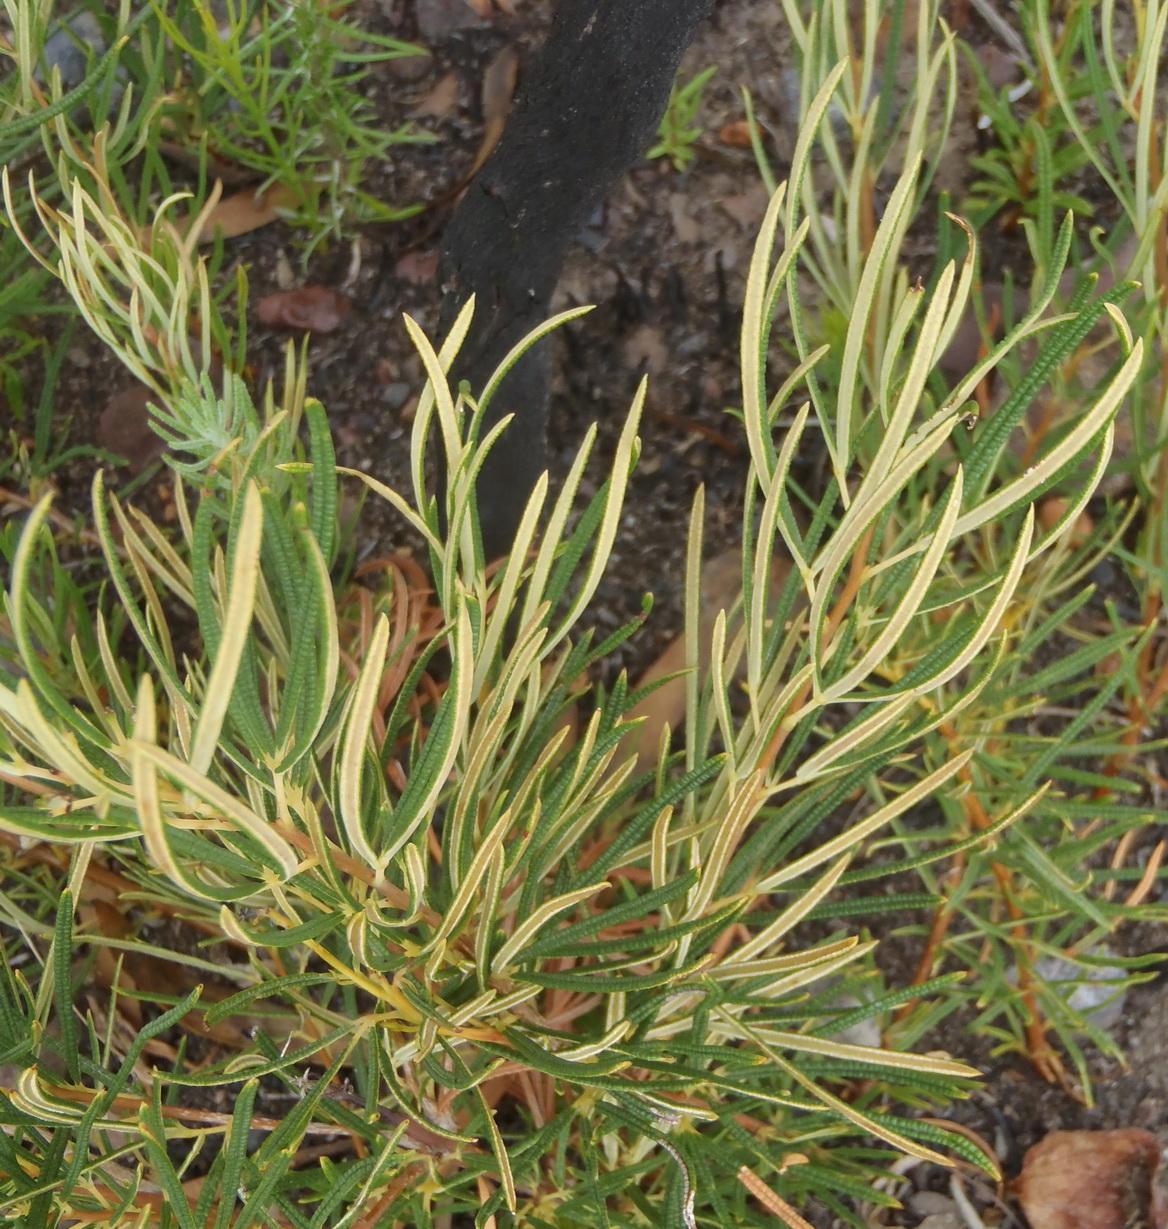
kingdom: Plantae
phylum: Tracheophyta
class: Magnoliopsida
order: Sapindales
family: Anacardiaceae
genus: Searsia
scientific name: Searsia rosmarinifolia
